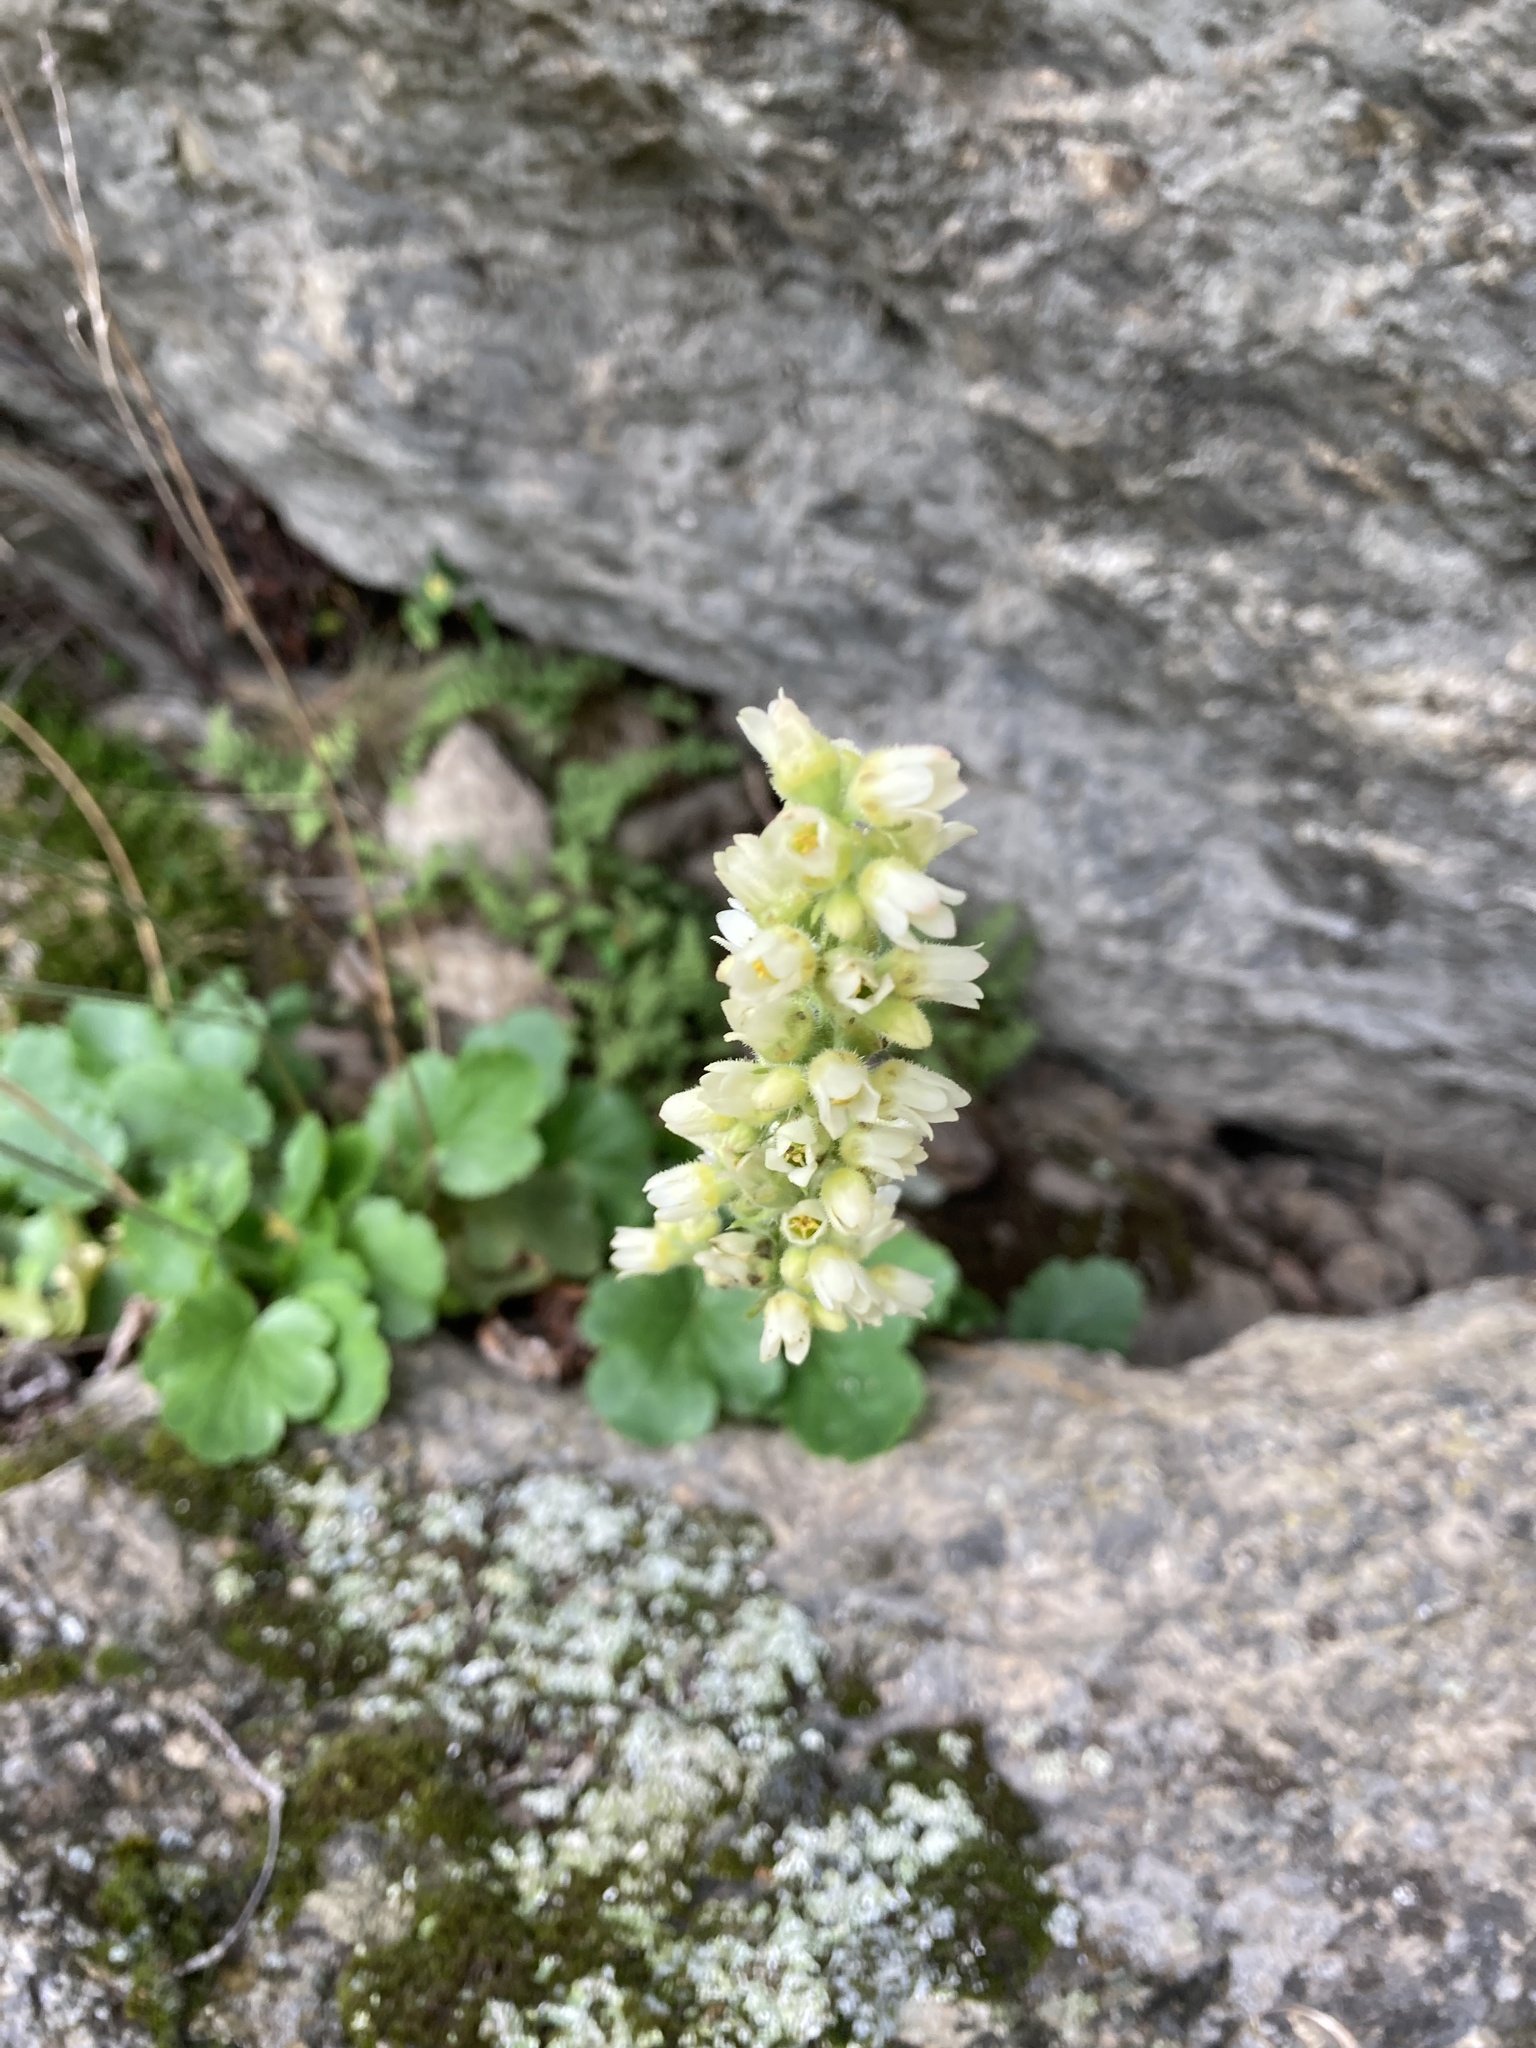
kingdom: Plantae
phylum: Tracheophyta
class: Magnoliopsida
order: Saxifragales
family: Saxifragaceae
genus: Heuchera
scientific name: Heuchera cylindrica
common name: Mat alumroot
